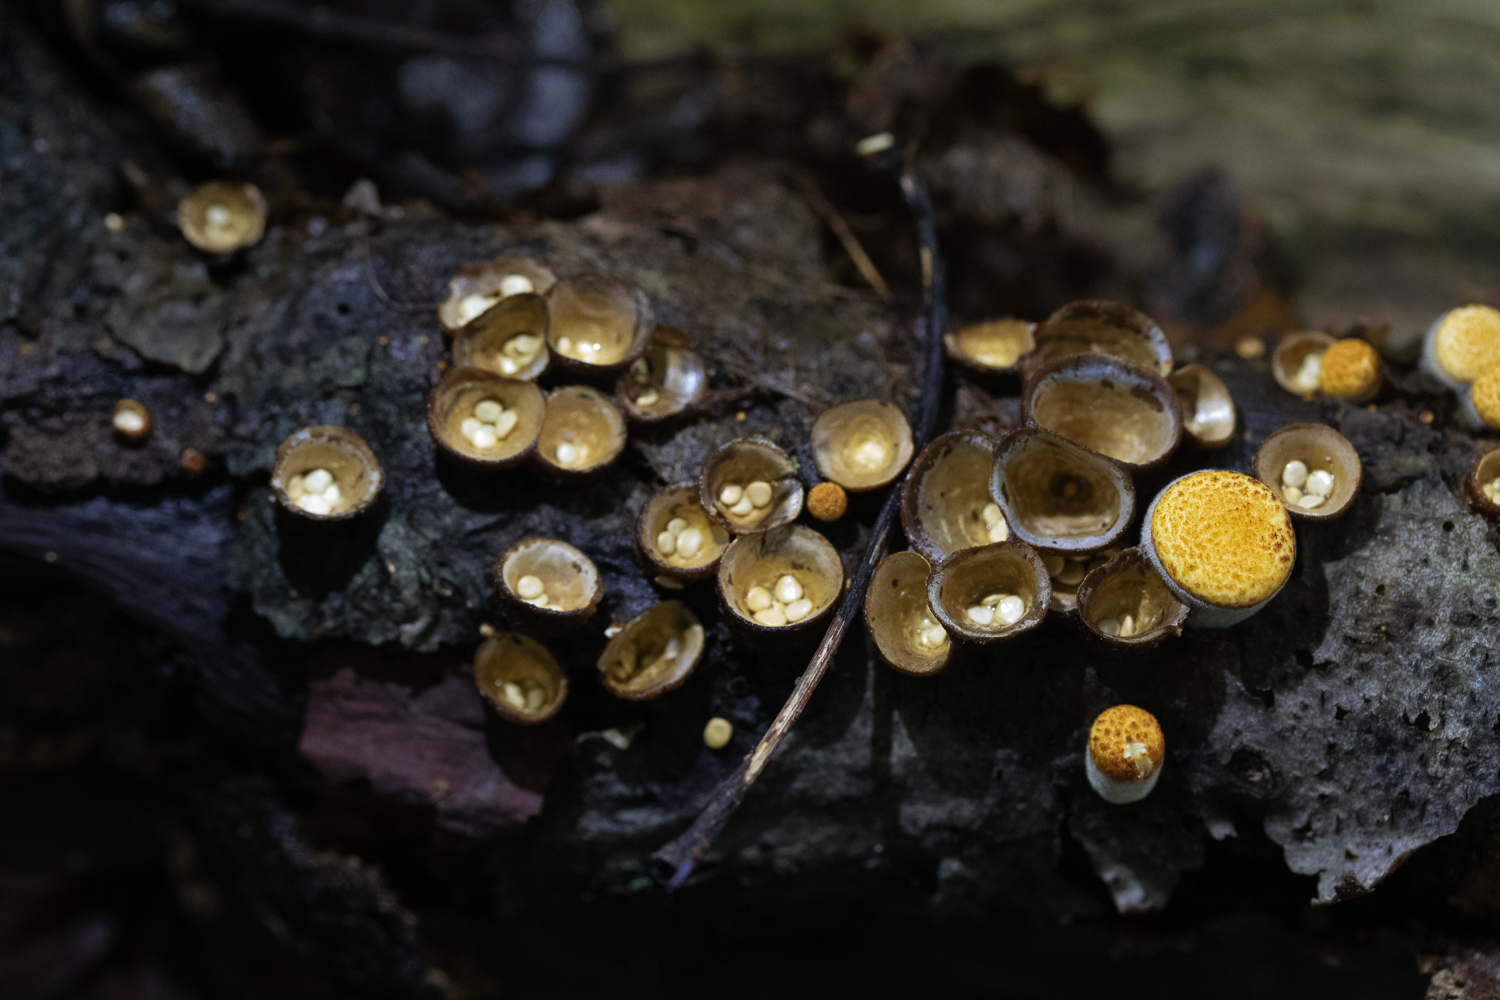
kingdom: Fungi
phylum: Basidiomycota
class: Agaricomycetes
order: Agaricales
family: Nidulariaceae
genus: Crucibulum
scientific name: Crucibulum laeve
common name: Common bird's nest
